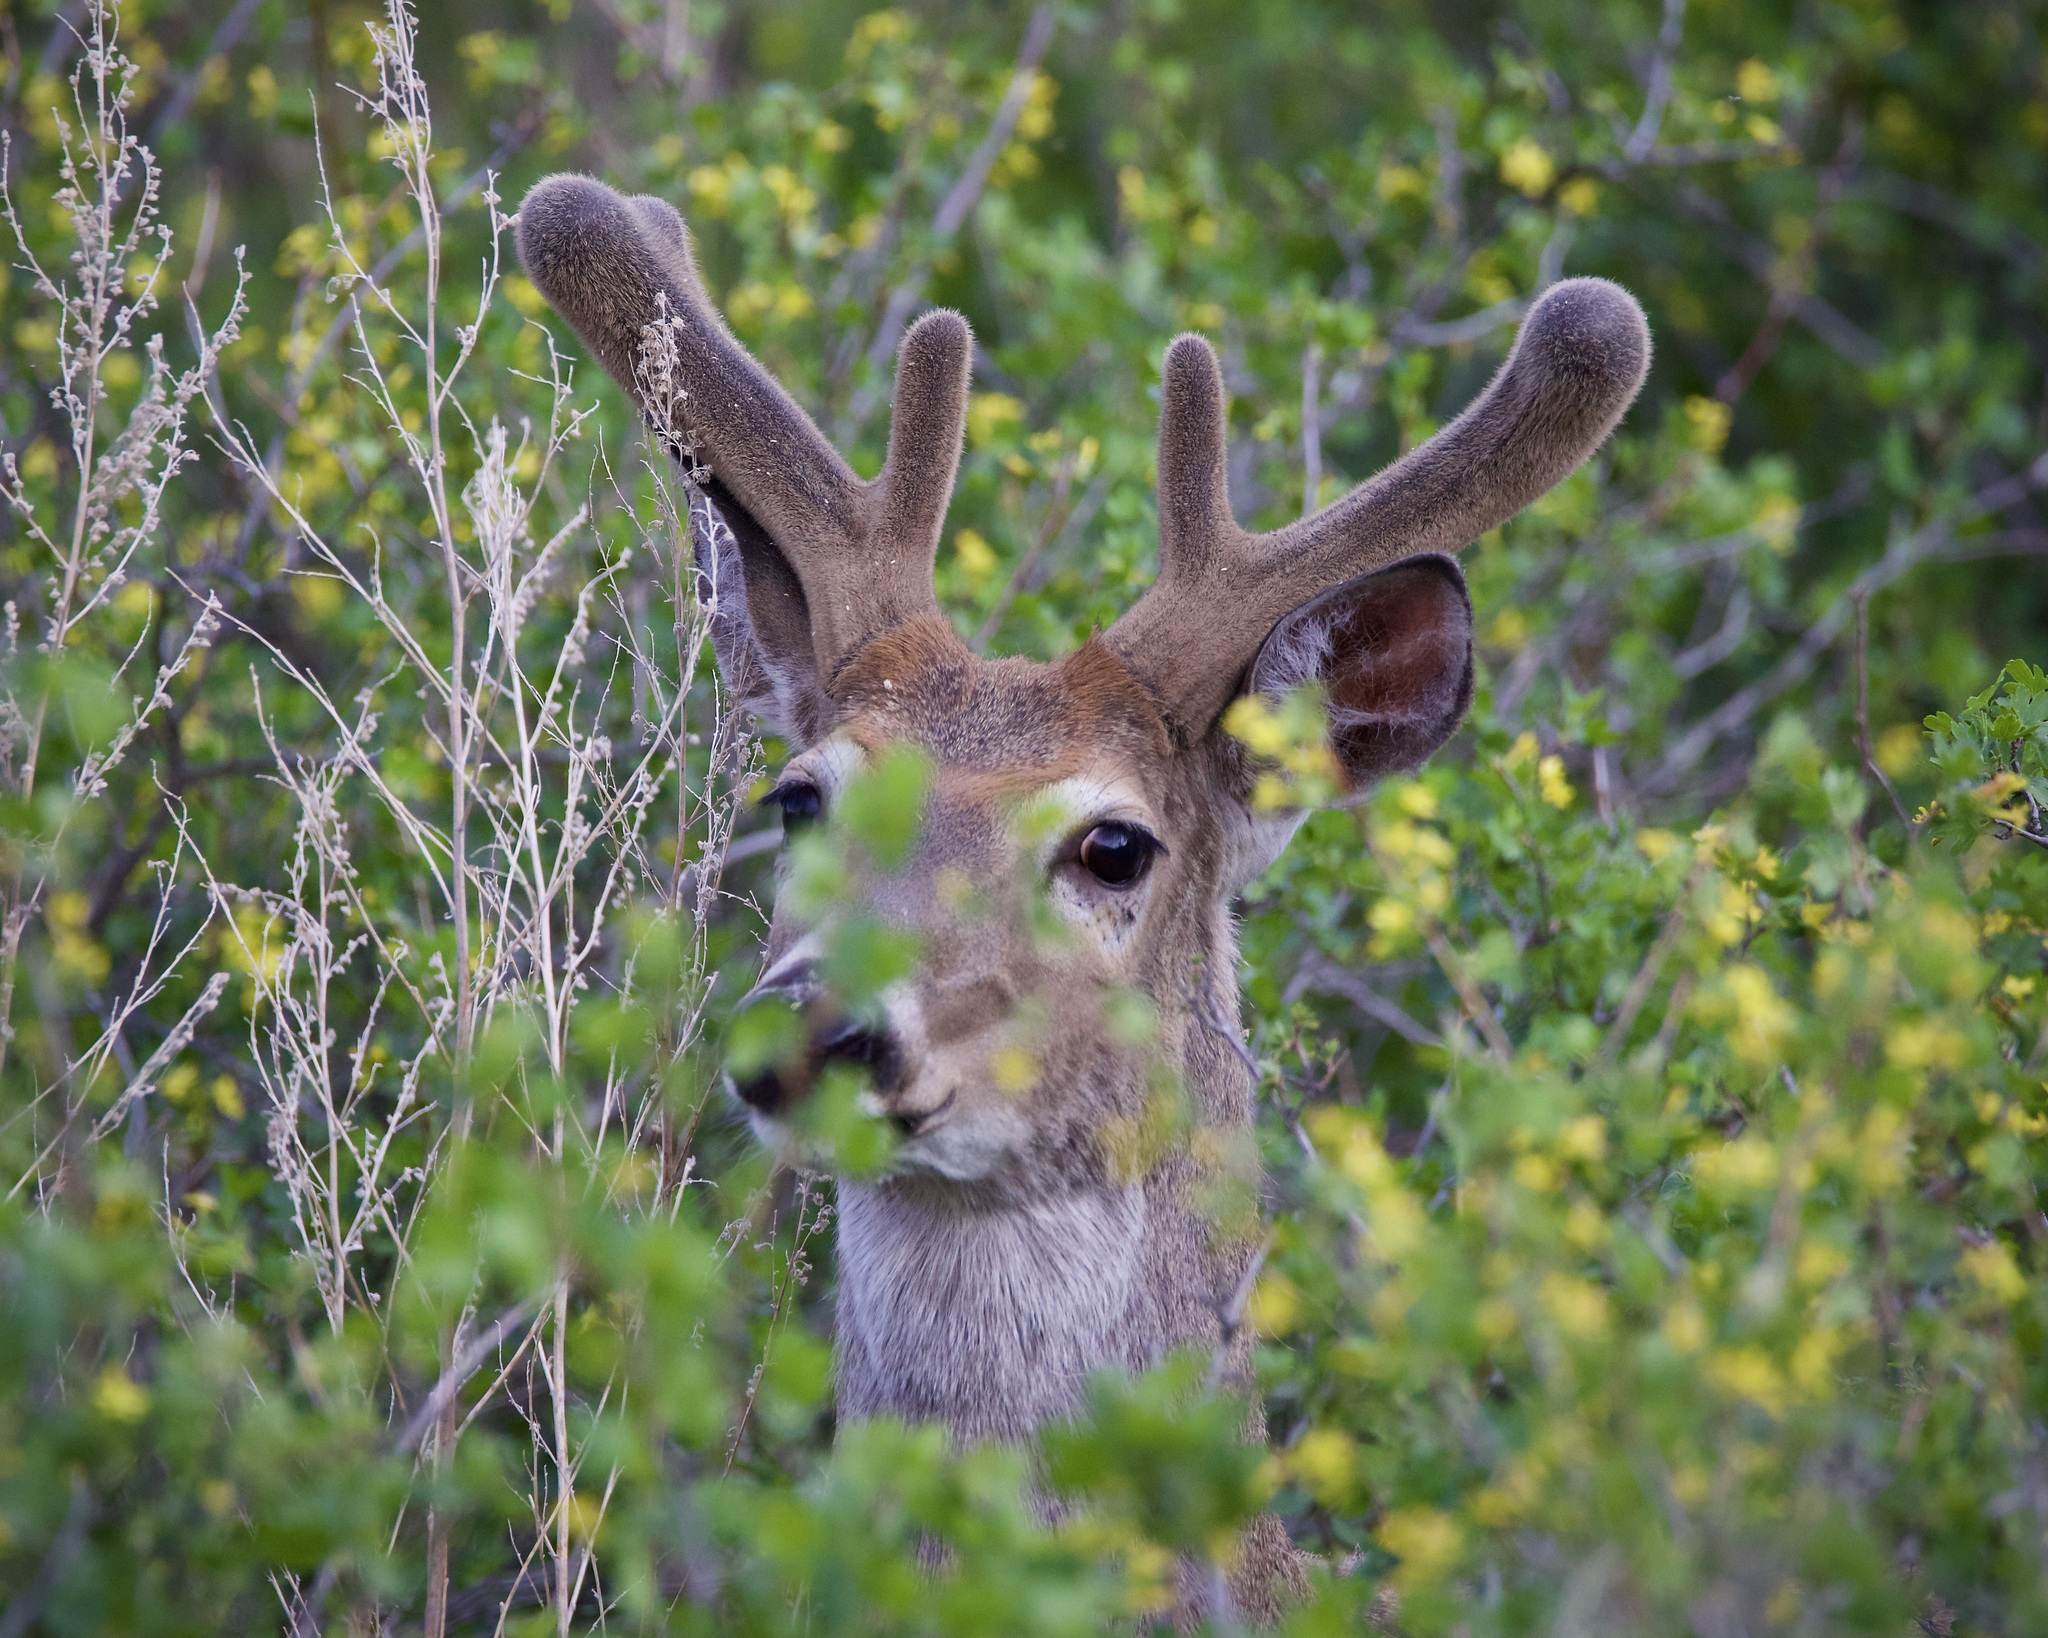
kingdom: Animalia
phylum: Chordata
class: Mammalia
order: Artiodactyla
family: Cervidae
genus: Odocoileus
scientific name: Odocoileus virginianus
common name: White-tailed deer
